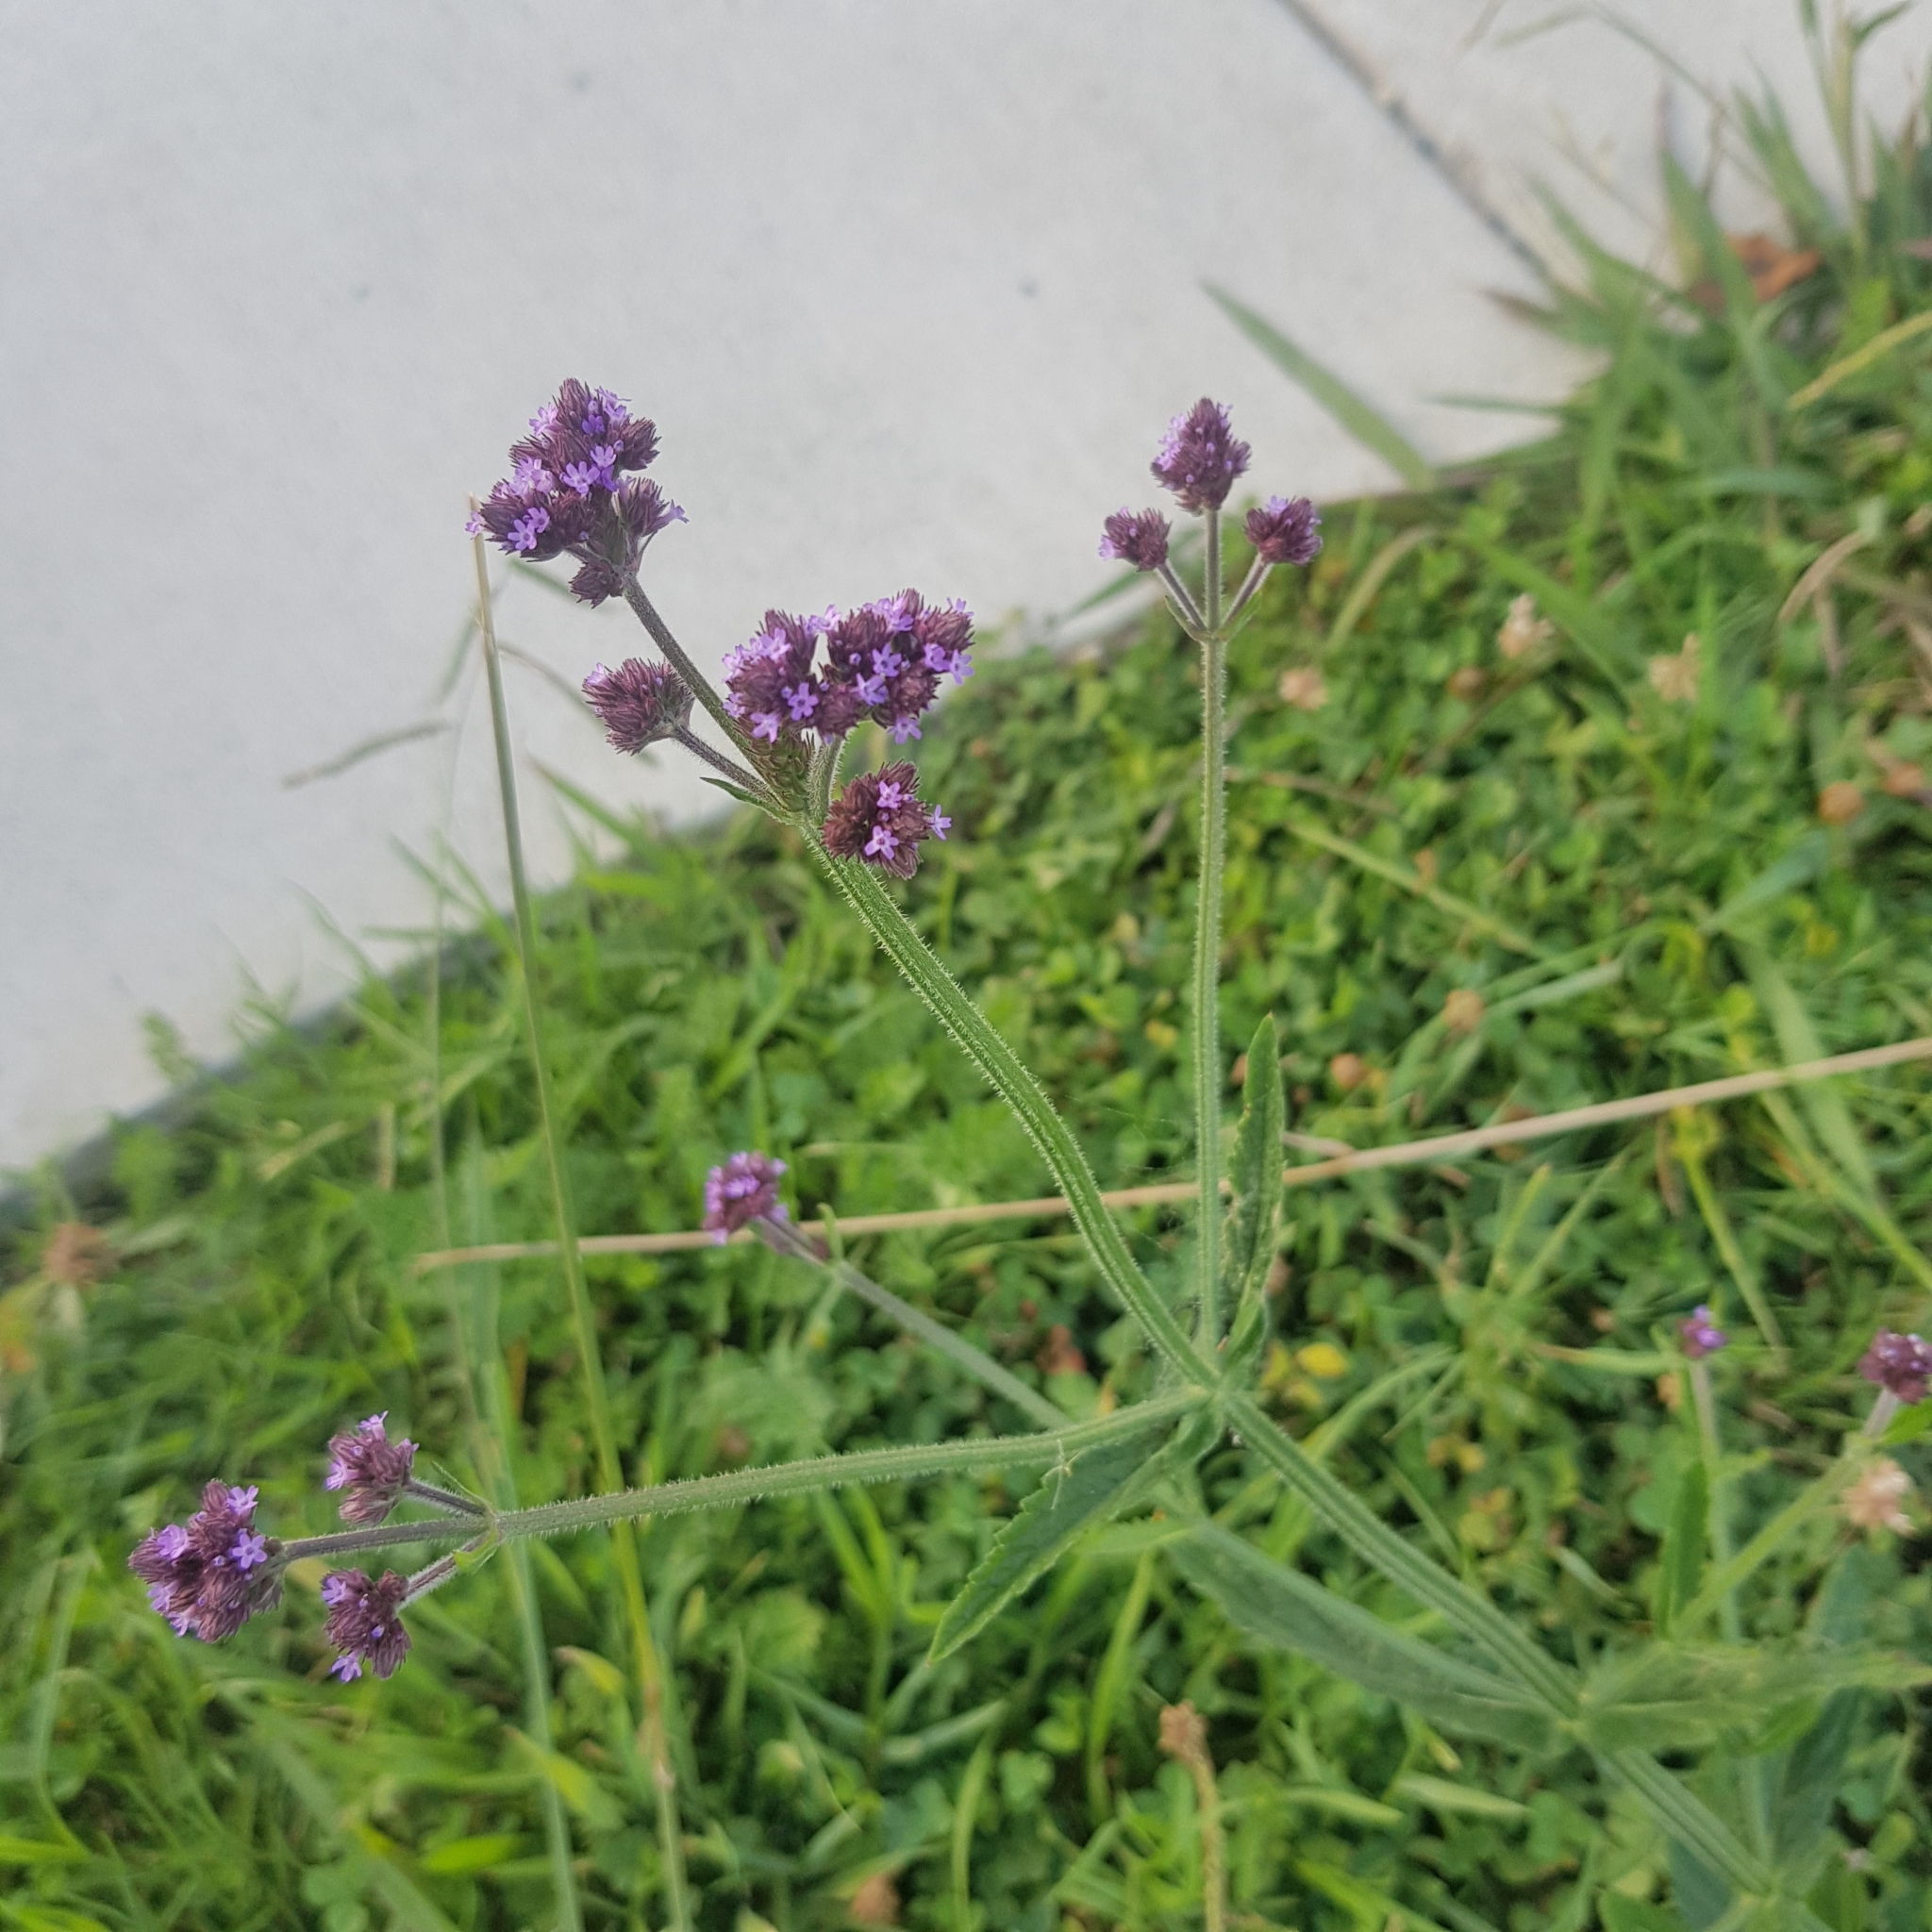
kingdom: Plantae
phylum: Tracheophyta
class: Magnoliopsida
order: Lamiales
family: Verbenaceae
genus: Verbena
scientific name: Verbena incompta
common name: Purpletop vervain
